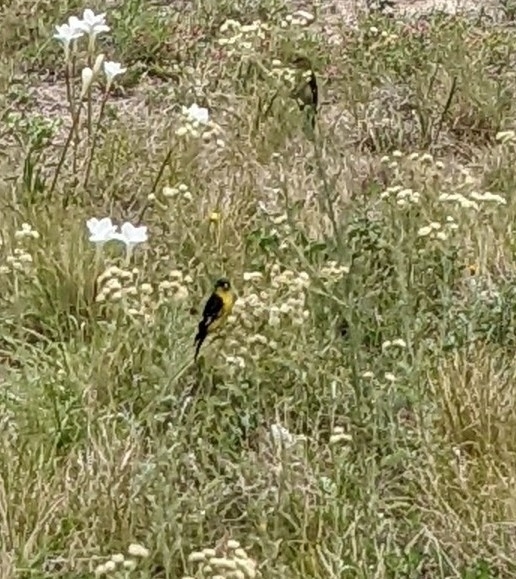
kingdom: Animalia
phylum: Chordata
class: Aves
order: Passeriformes
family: Fringillidae
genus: Spinus
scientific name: Spinus psaltria
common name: Lesser goldfinch
